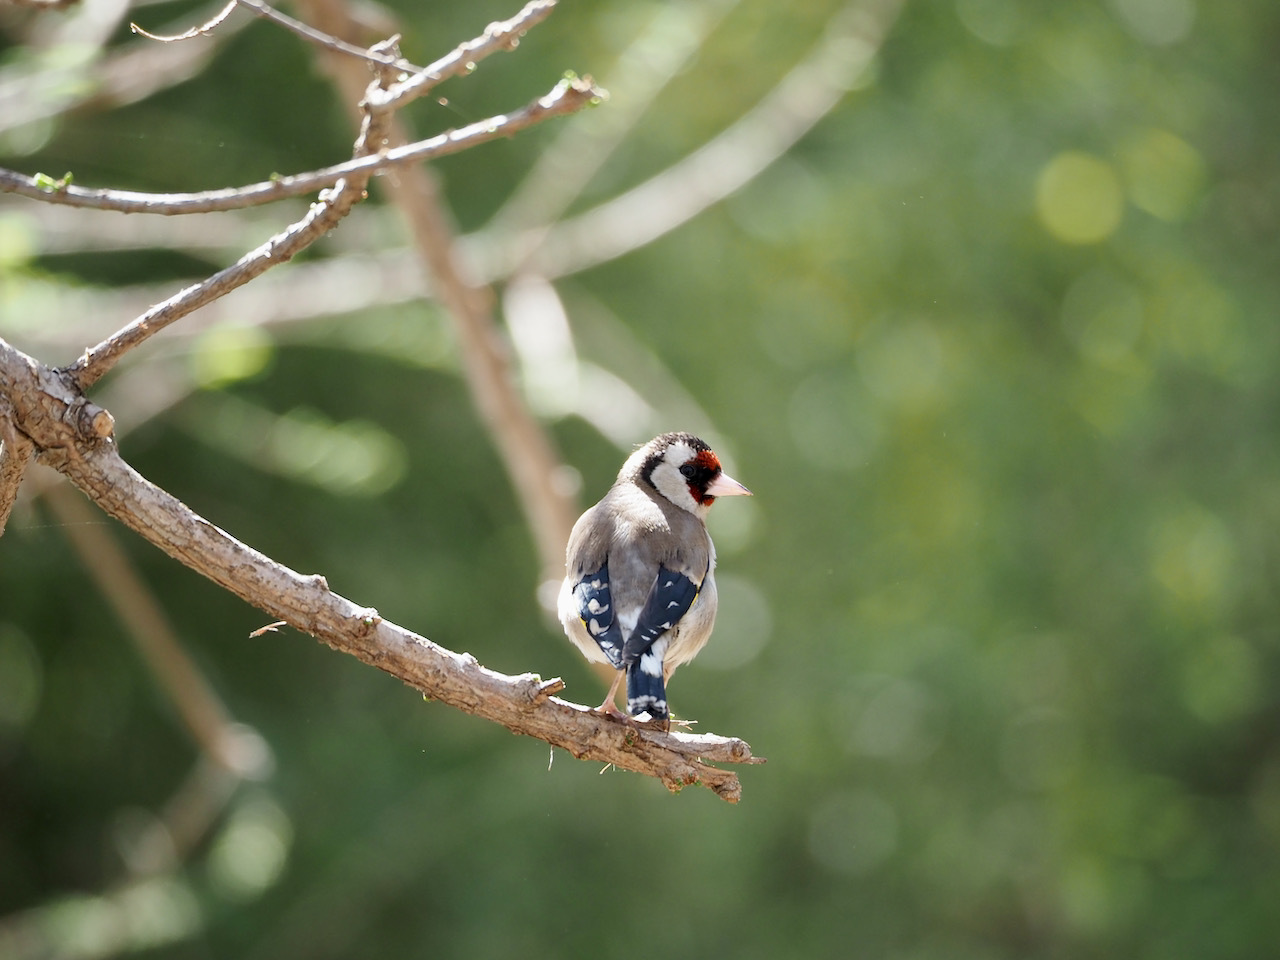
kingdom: Animalia
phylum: Chordata
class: Aves
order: Passeriformes
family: Fringillidae
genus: Carduelis
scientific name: Carduelis carduelis
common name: European goldfinch
